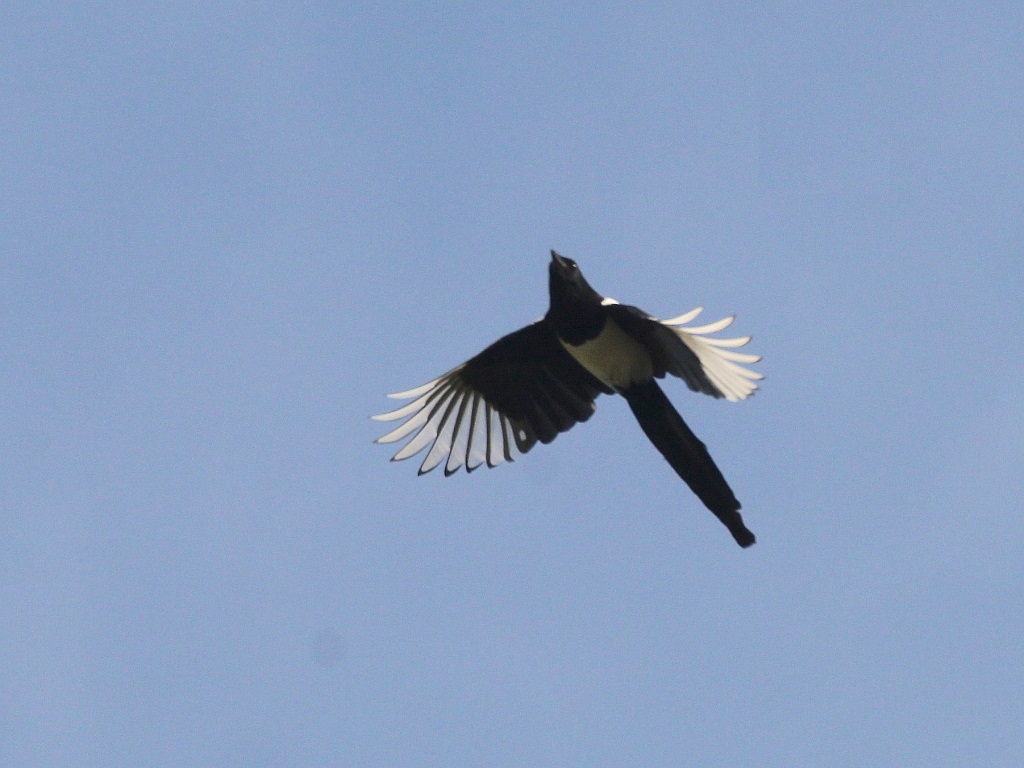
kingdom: Animalia
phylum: Chordata
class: Aves
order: Passeriformes
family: Corvidae
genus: Pica
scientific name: Pica pica
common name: Eurasian magpie
